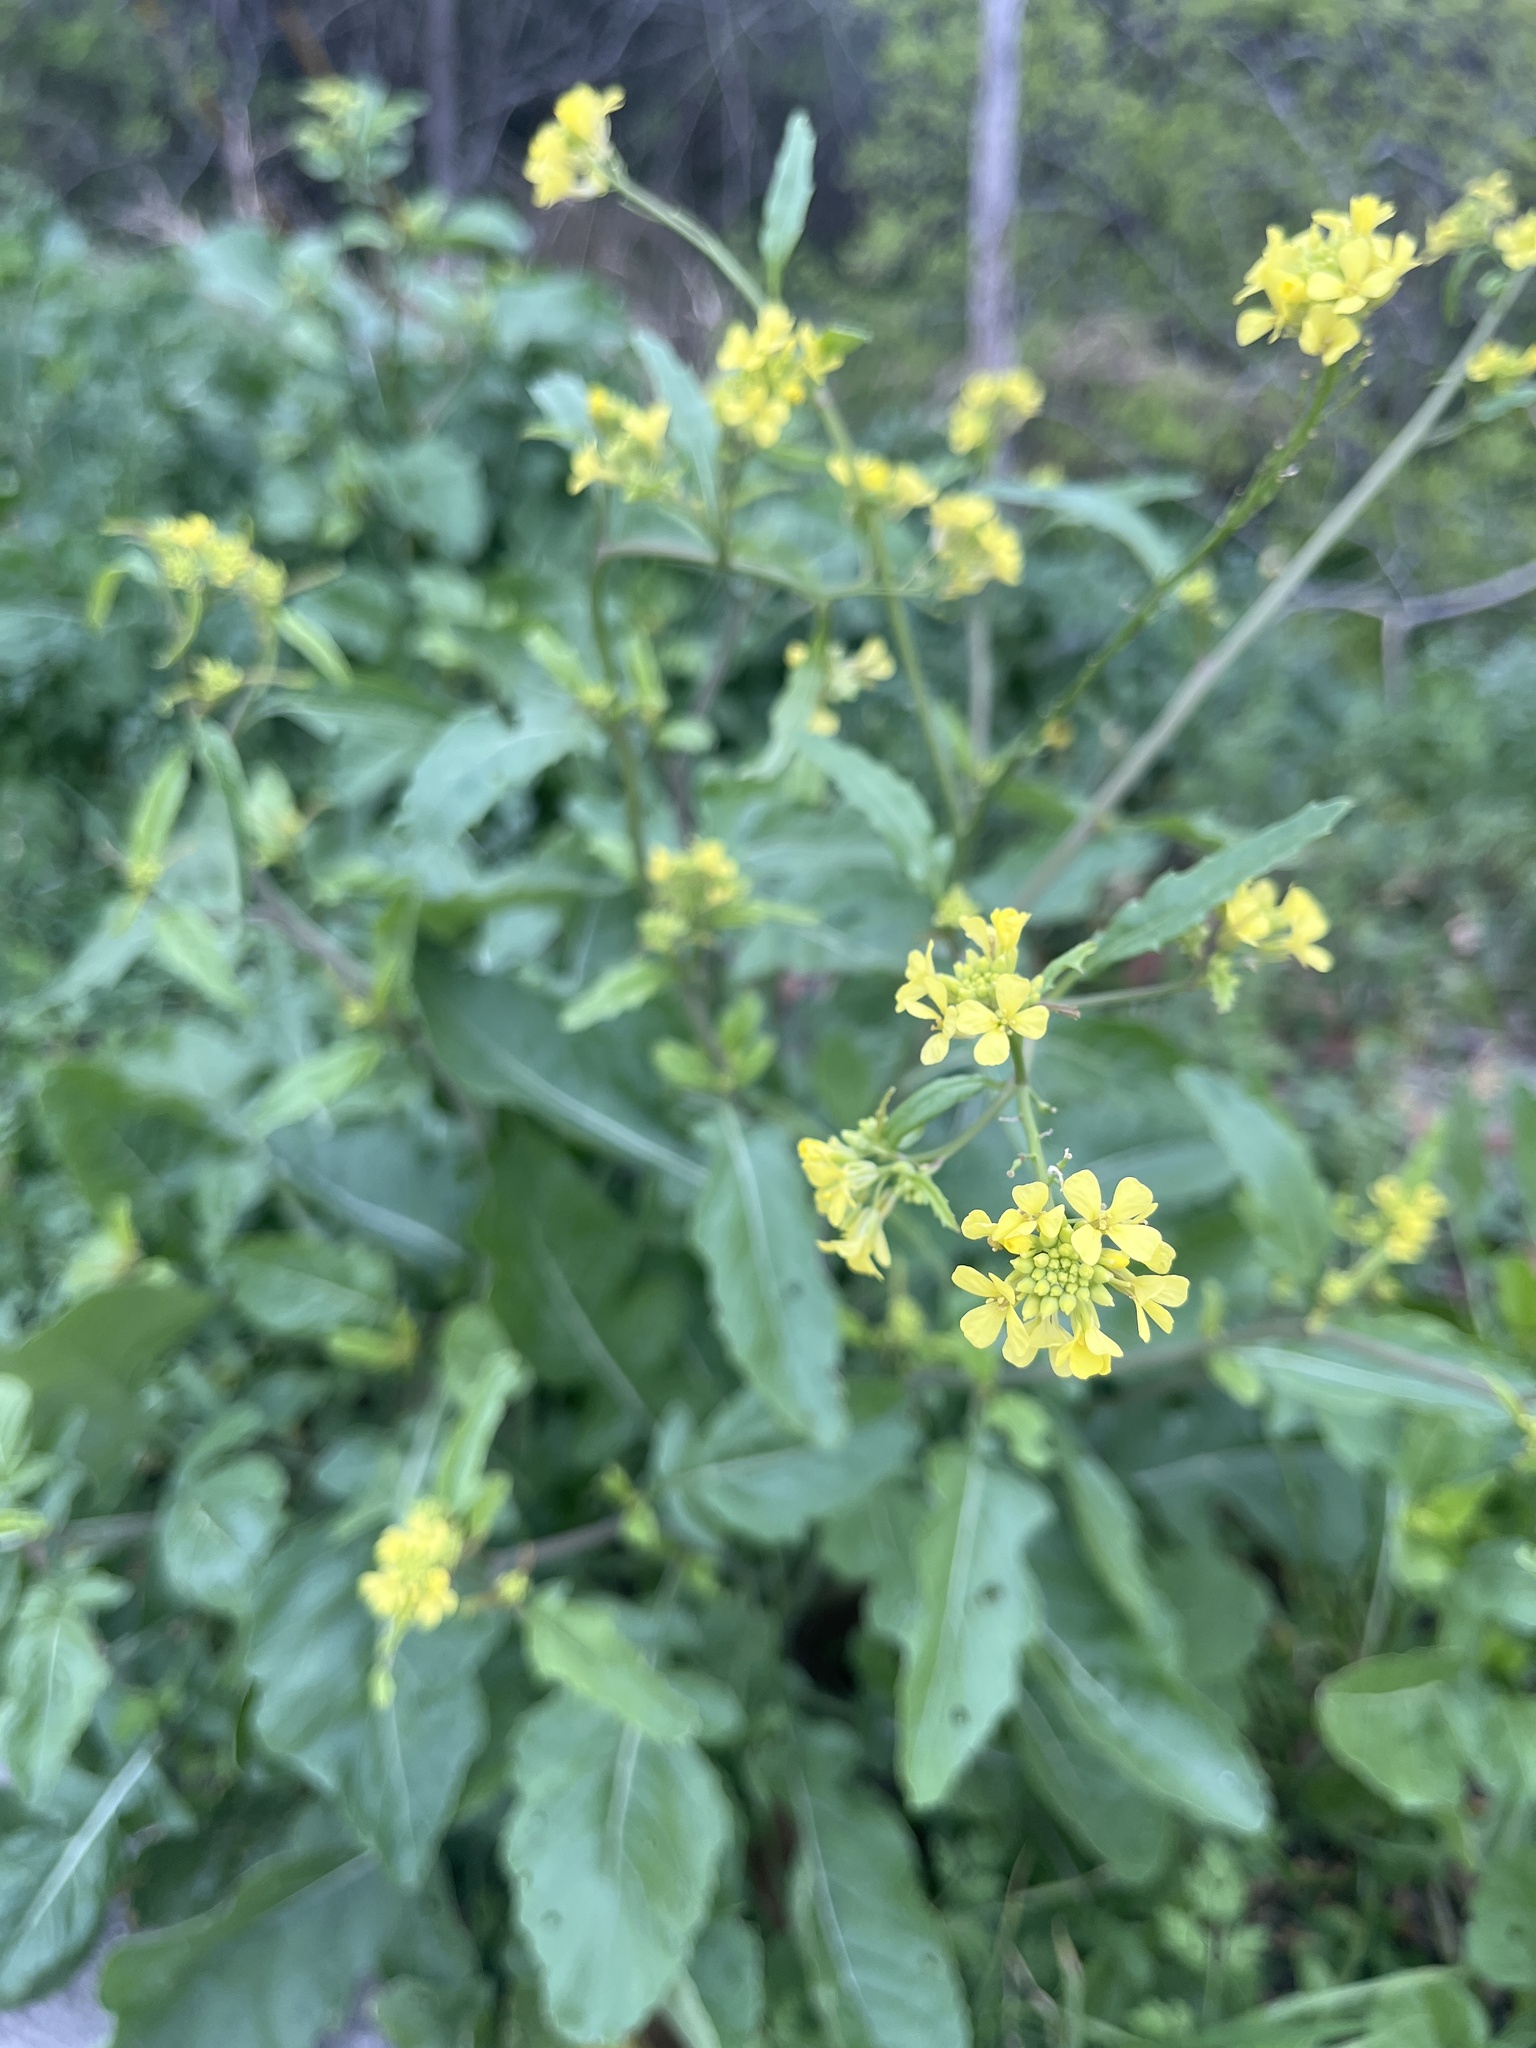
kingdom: Plantae
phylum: Tracheophyta
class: Magnoliopsida
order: Brassicales
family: Brassicaceae
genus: Rapistrum
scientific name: Rapistrum rugosum
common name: Annual bastardcabbage
